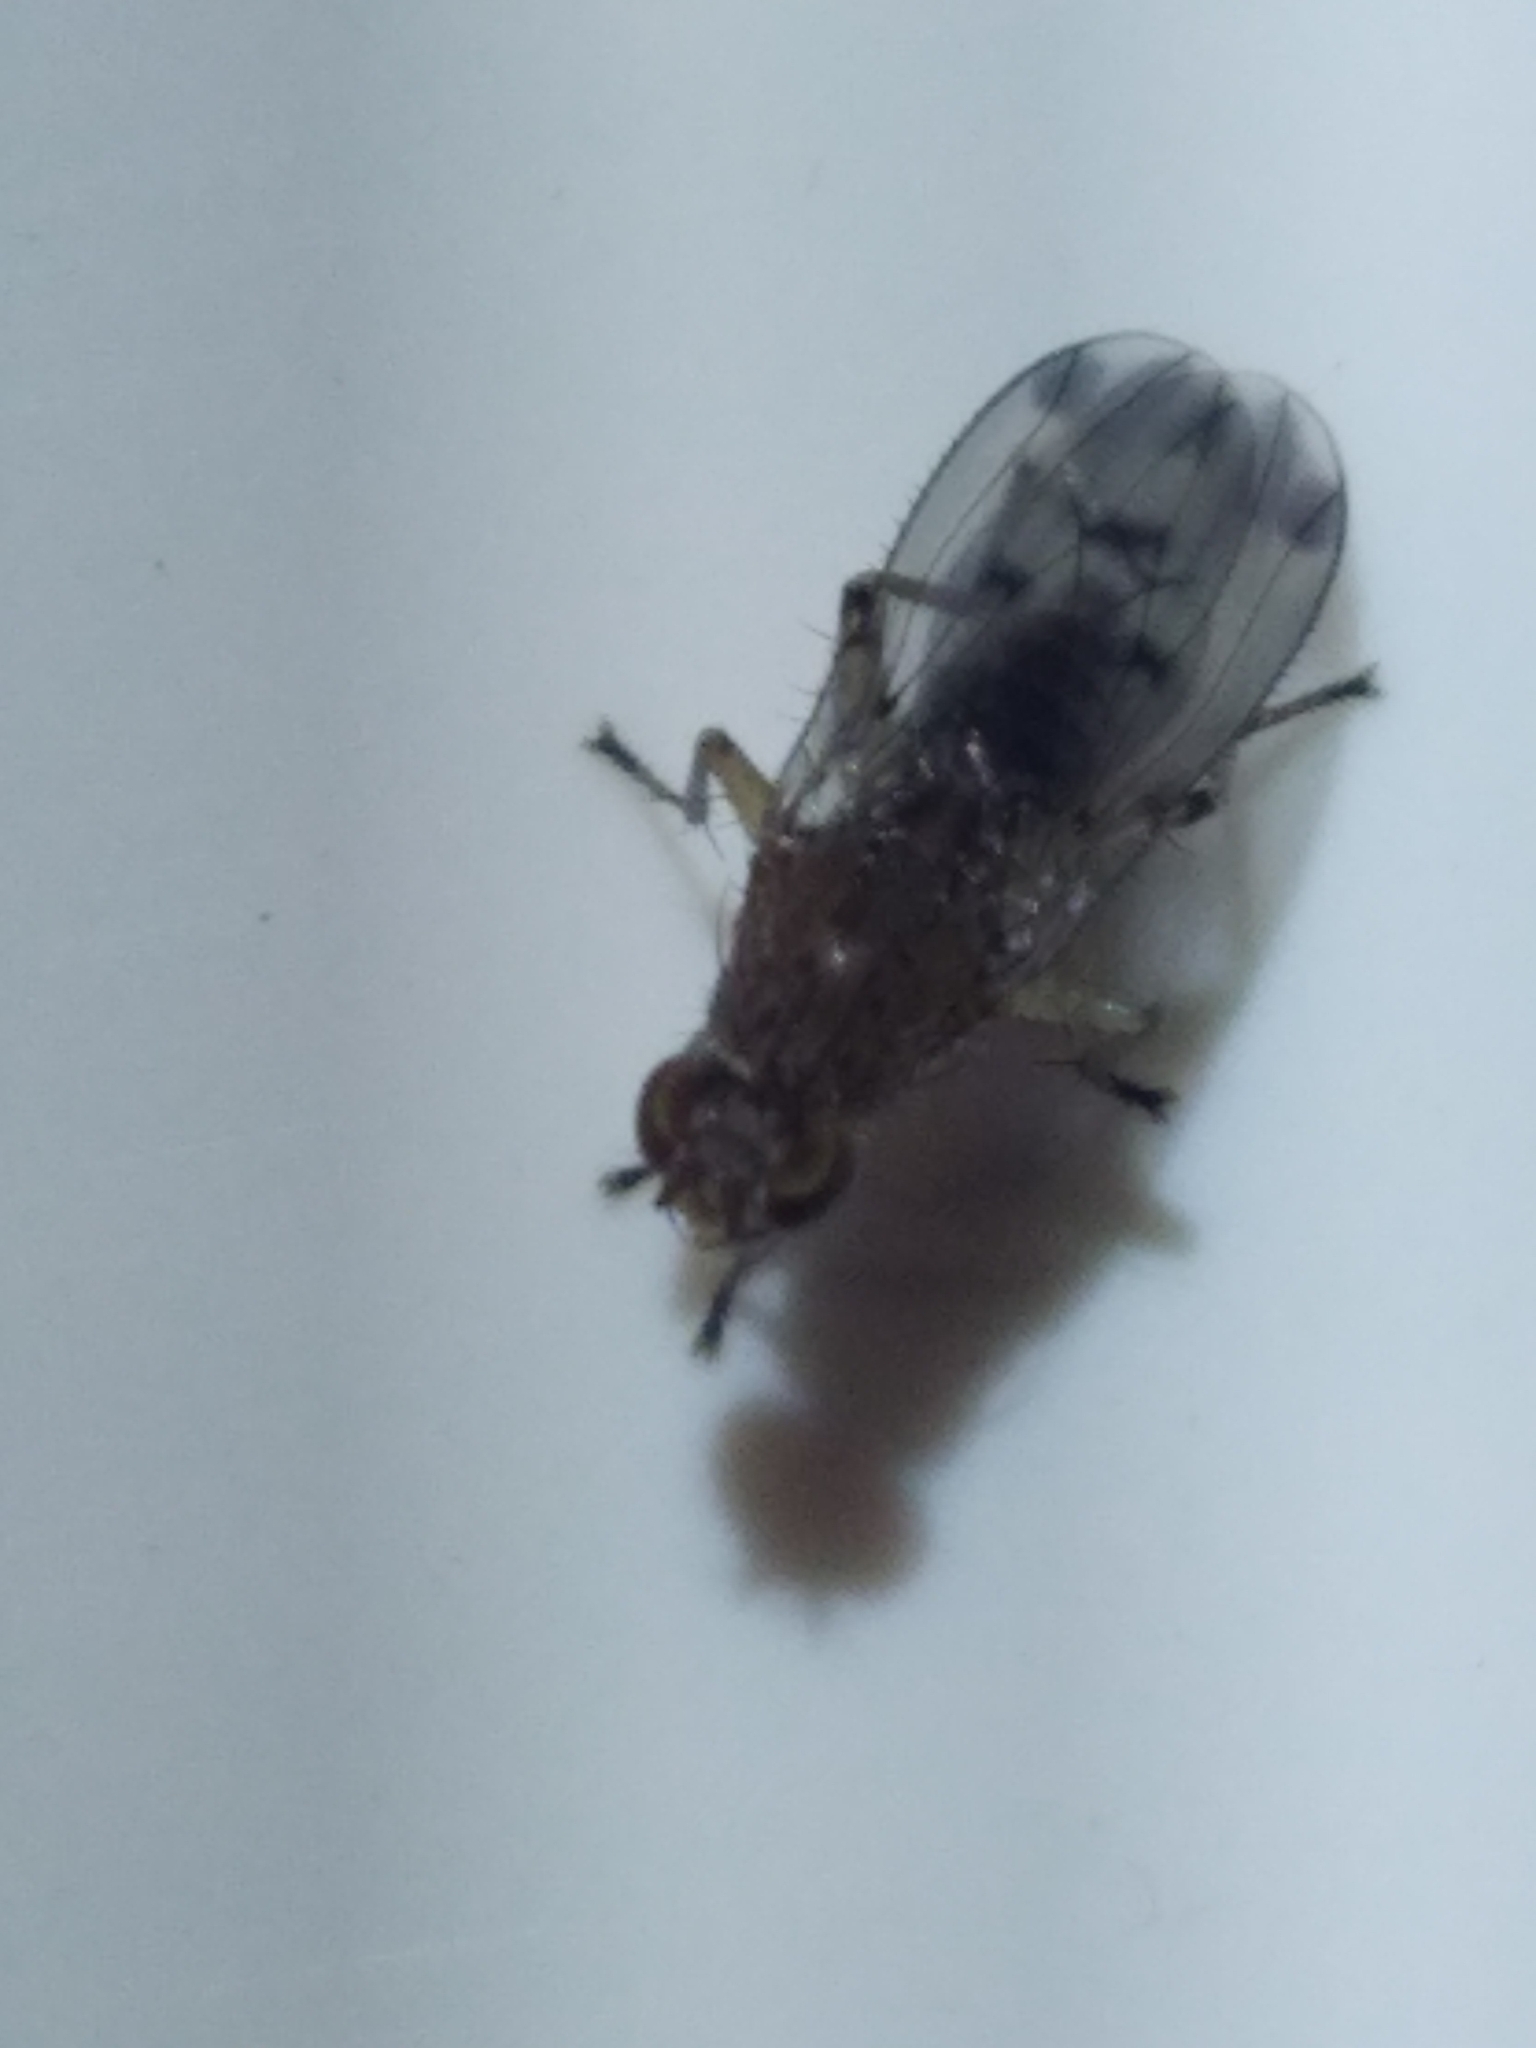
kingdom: Animalia
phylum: Arthropoda
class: Insecta
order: Diptera
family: Heleomyzidae
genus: Suillia
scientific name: Suillia variegata
